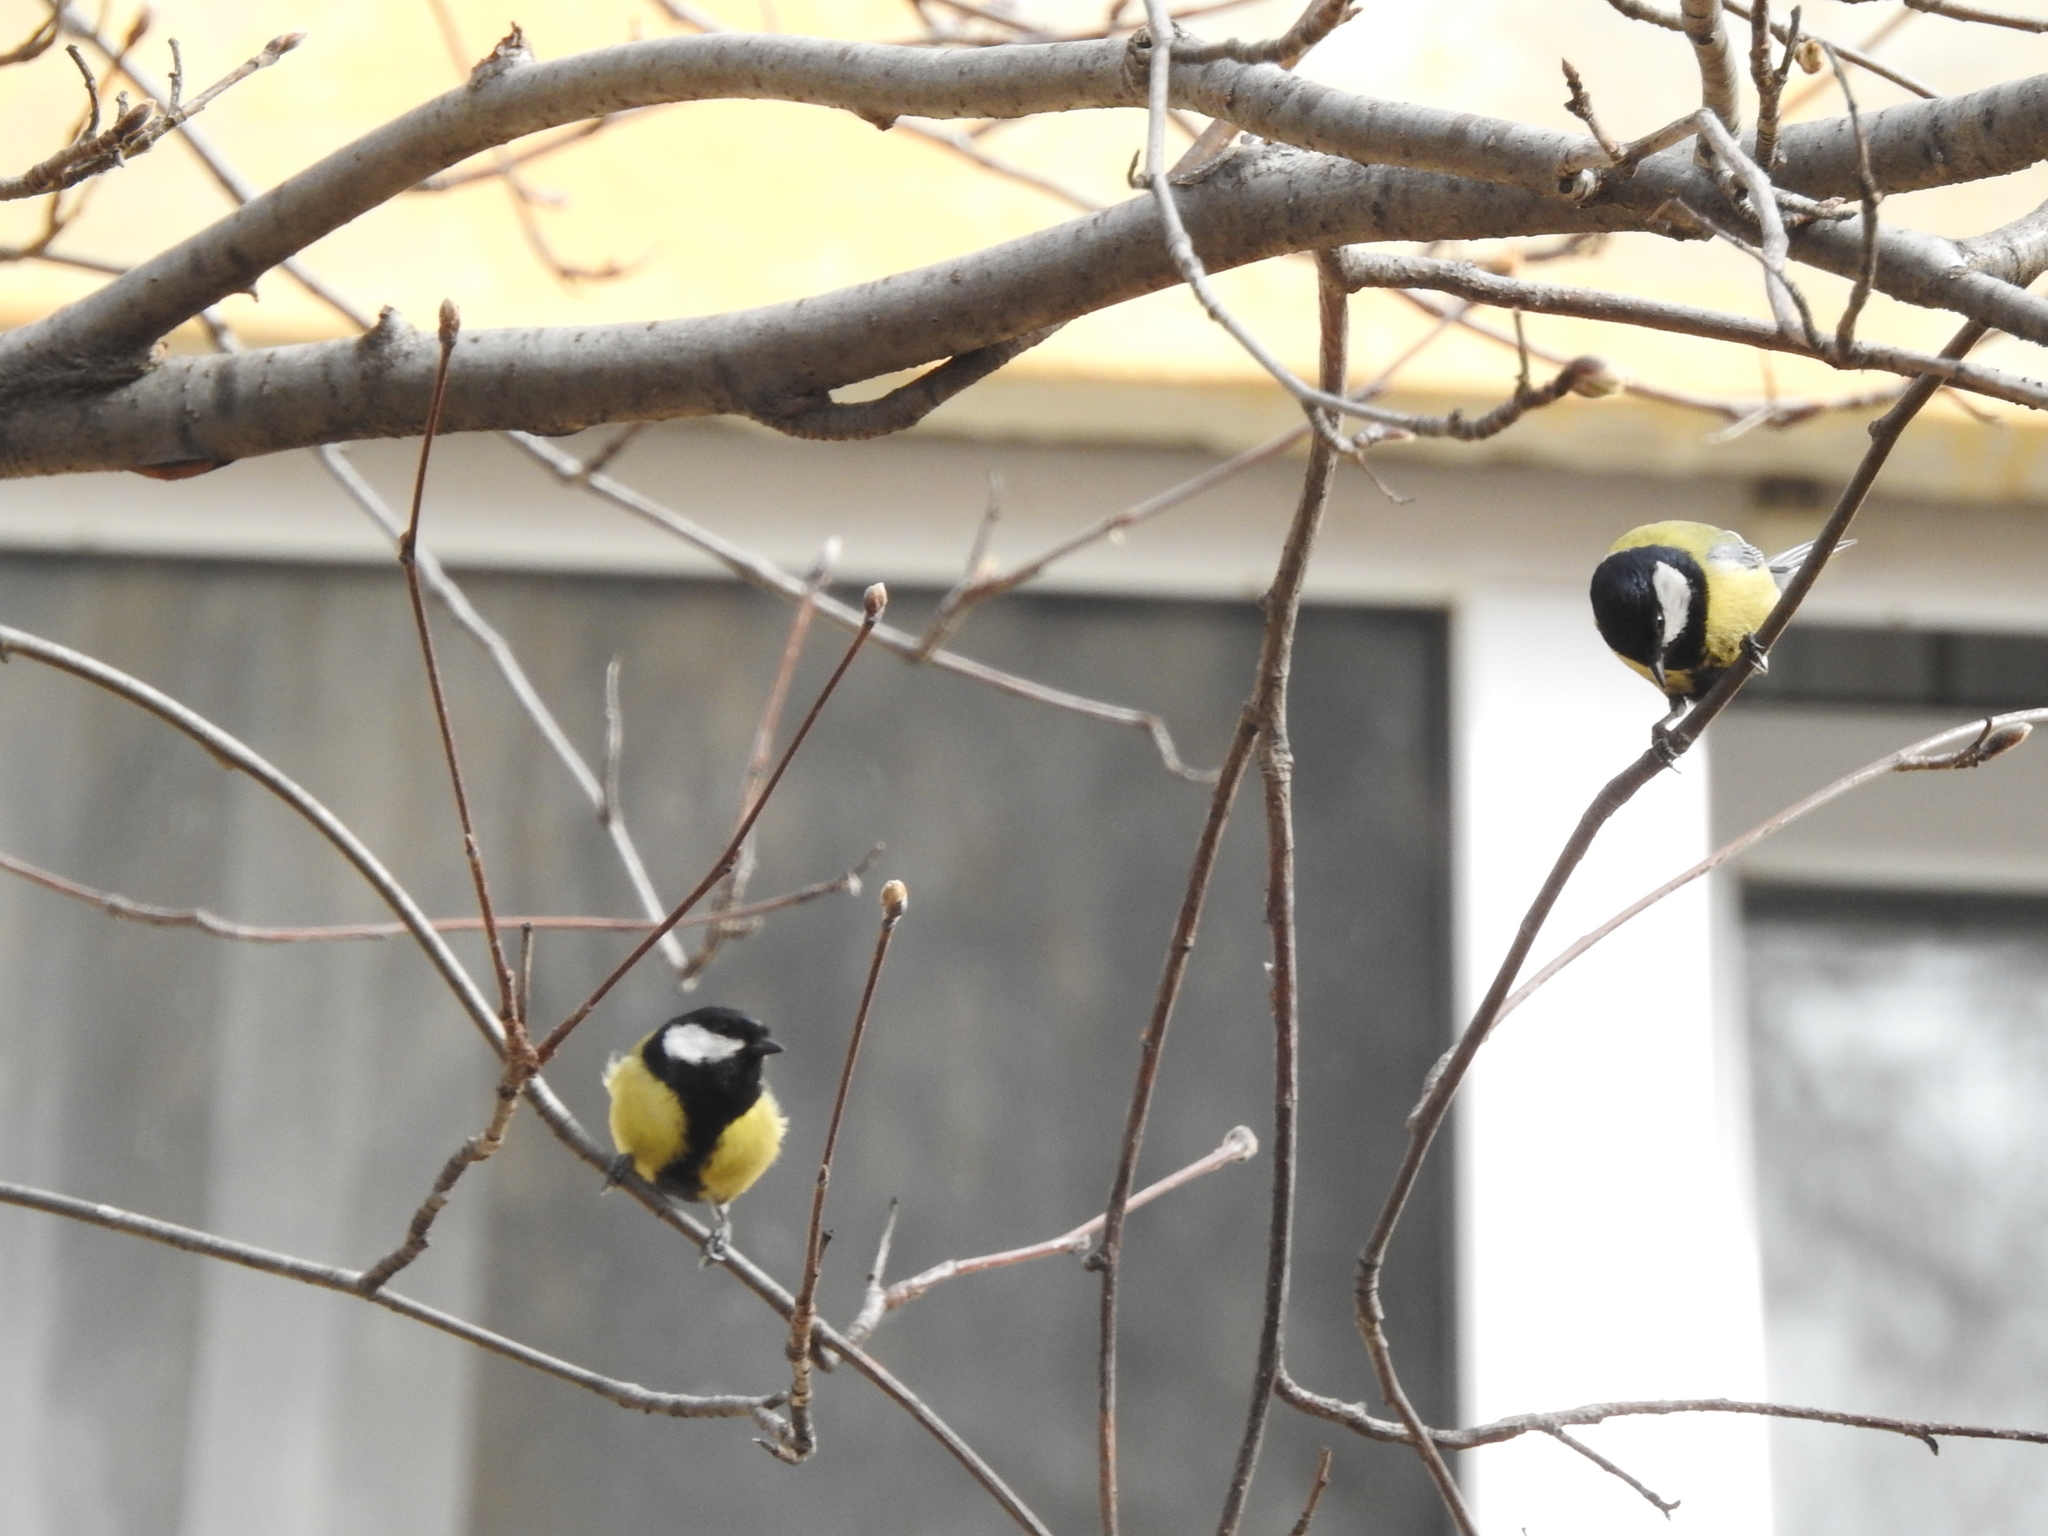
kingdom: Animalia
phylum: Chordata
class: Aves
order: Passeriformes
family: Paridae
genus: Parus
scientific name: Parus major
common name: Great tit
